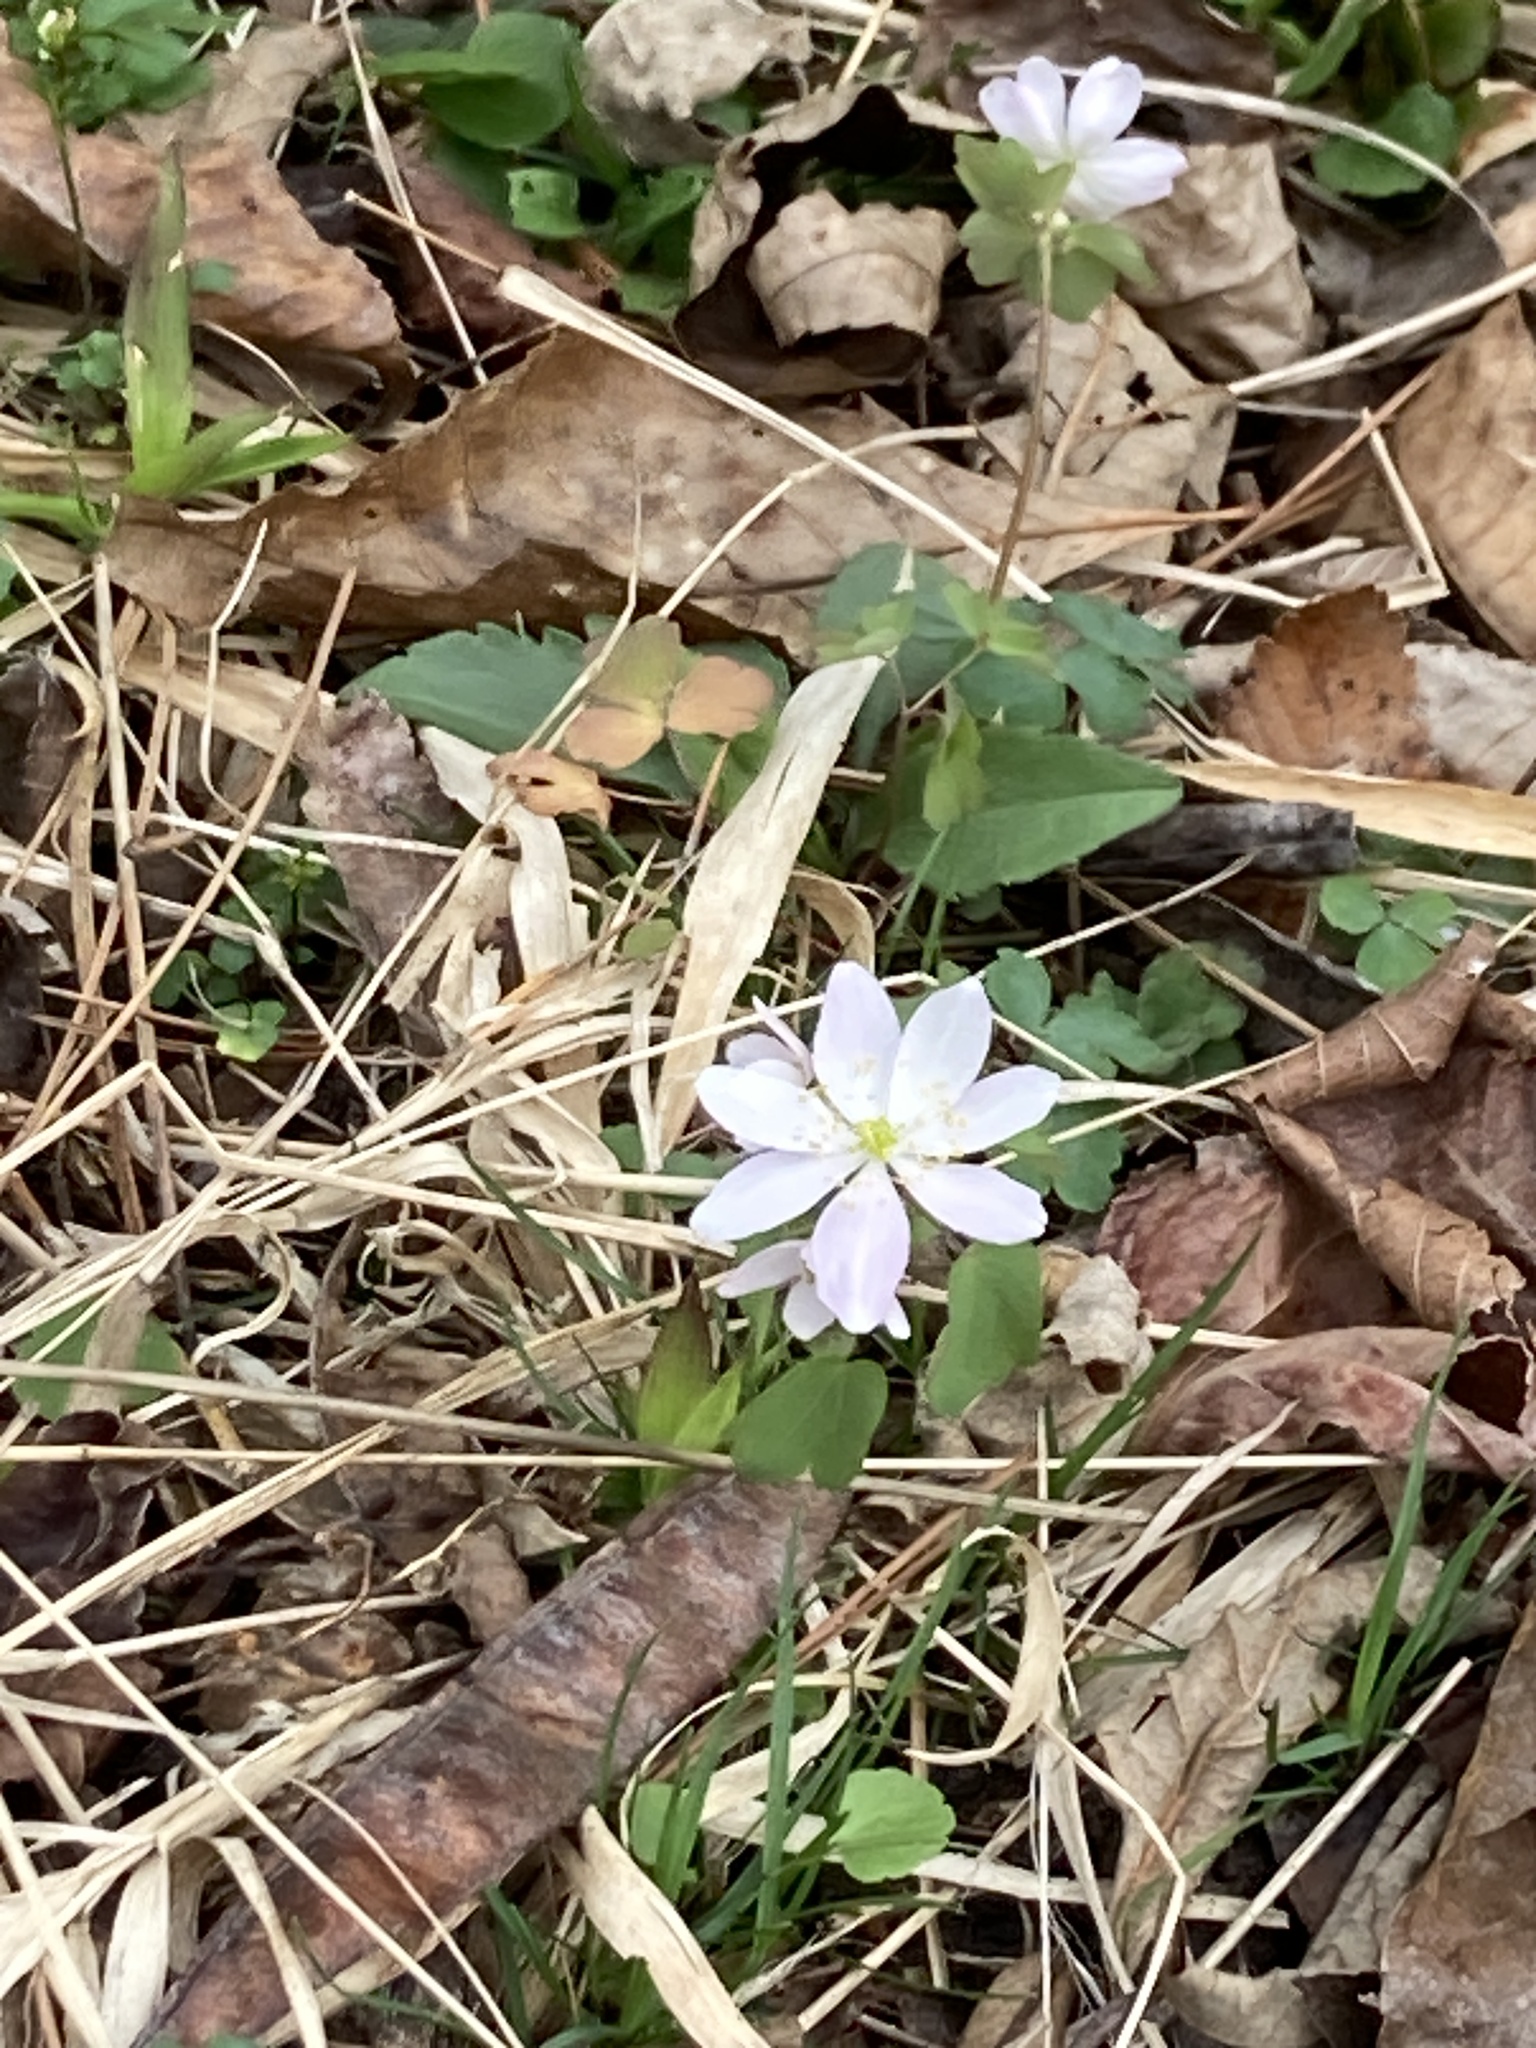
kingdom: Plantae
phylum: Tracheophyta
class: Magnoliopsida
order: Ranunculales
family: Ranunculaceae
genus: Thalictrum
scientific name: Thalictrum thalictroides
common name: Rue-anemone
